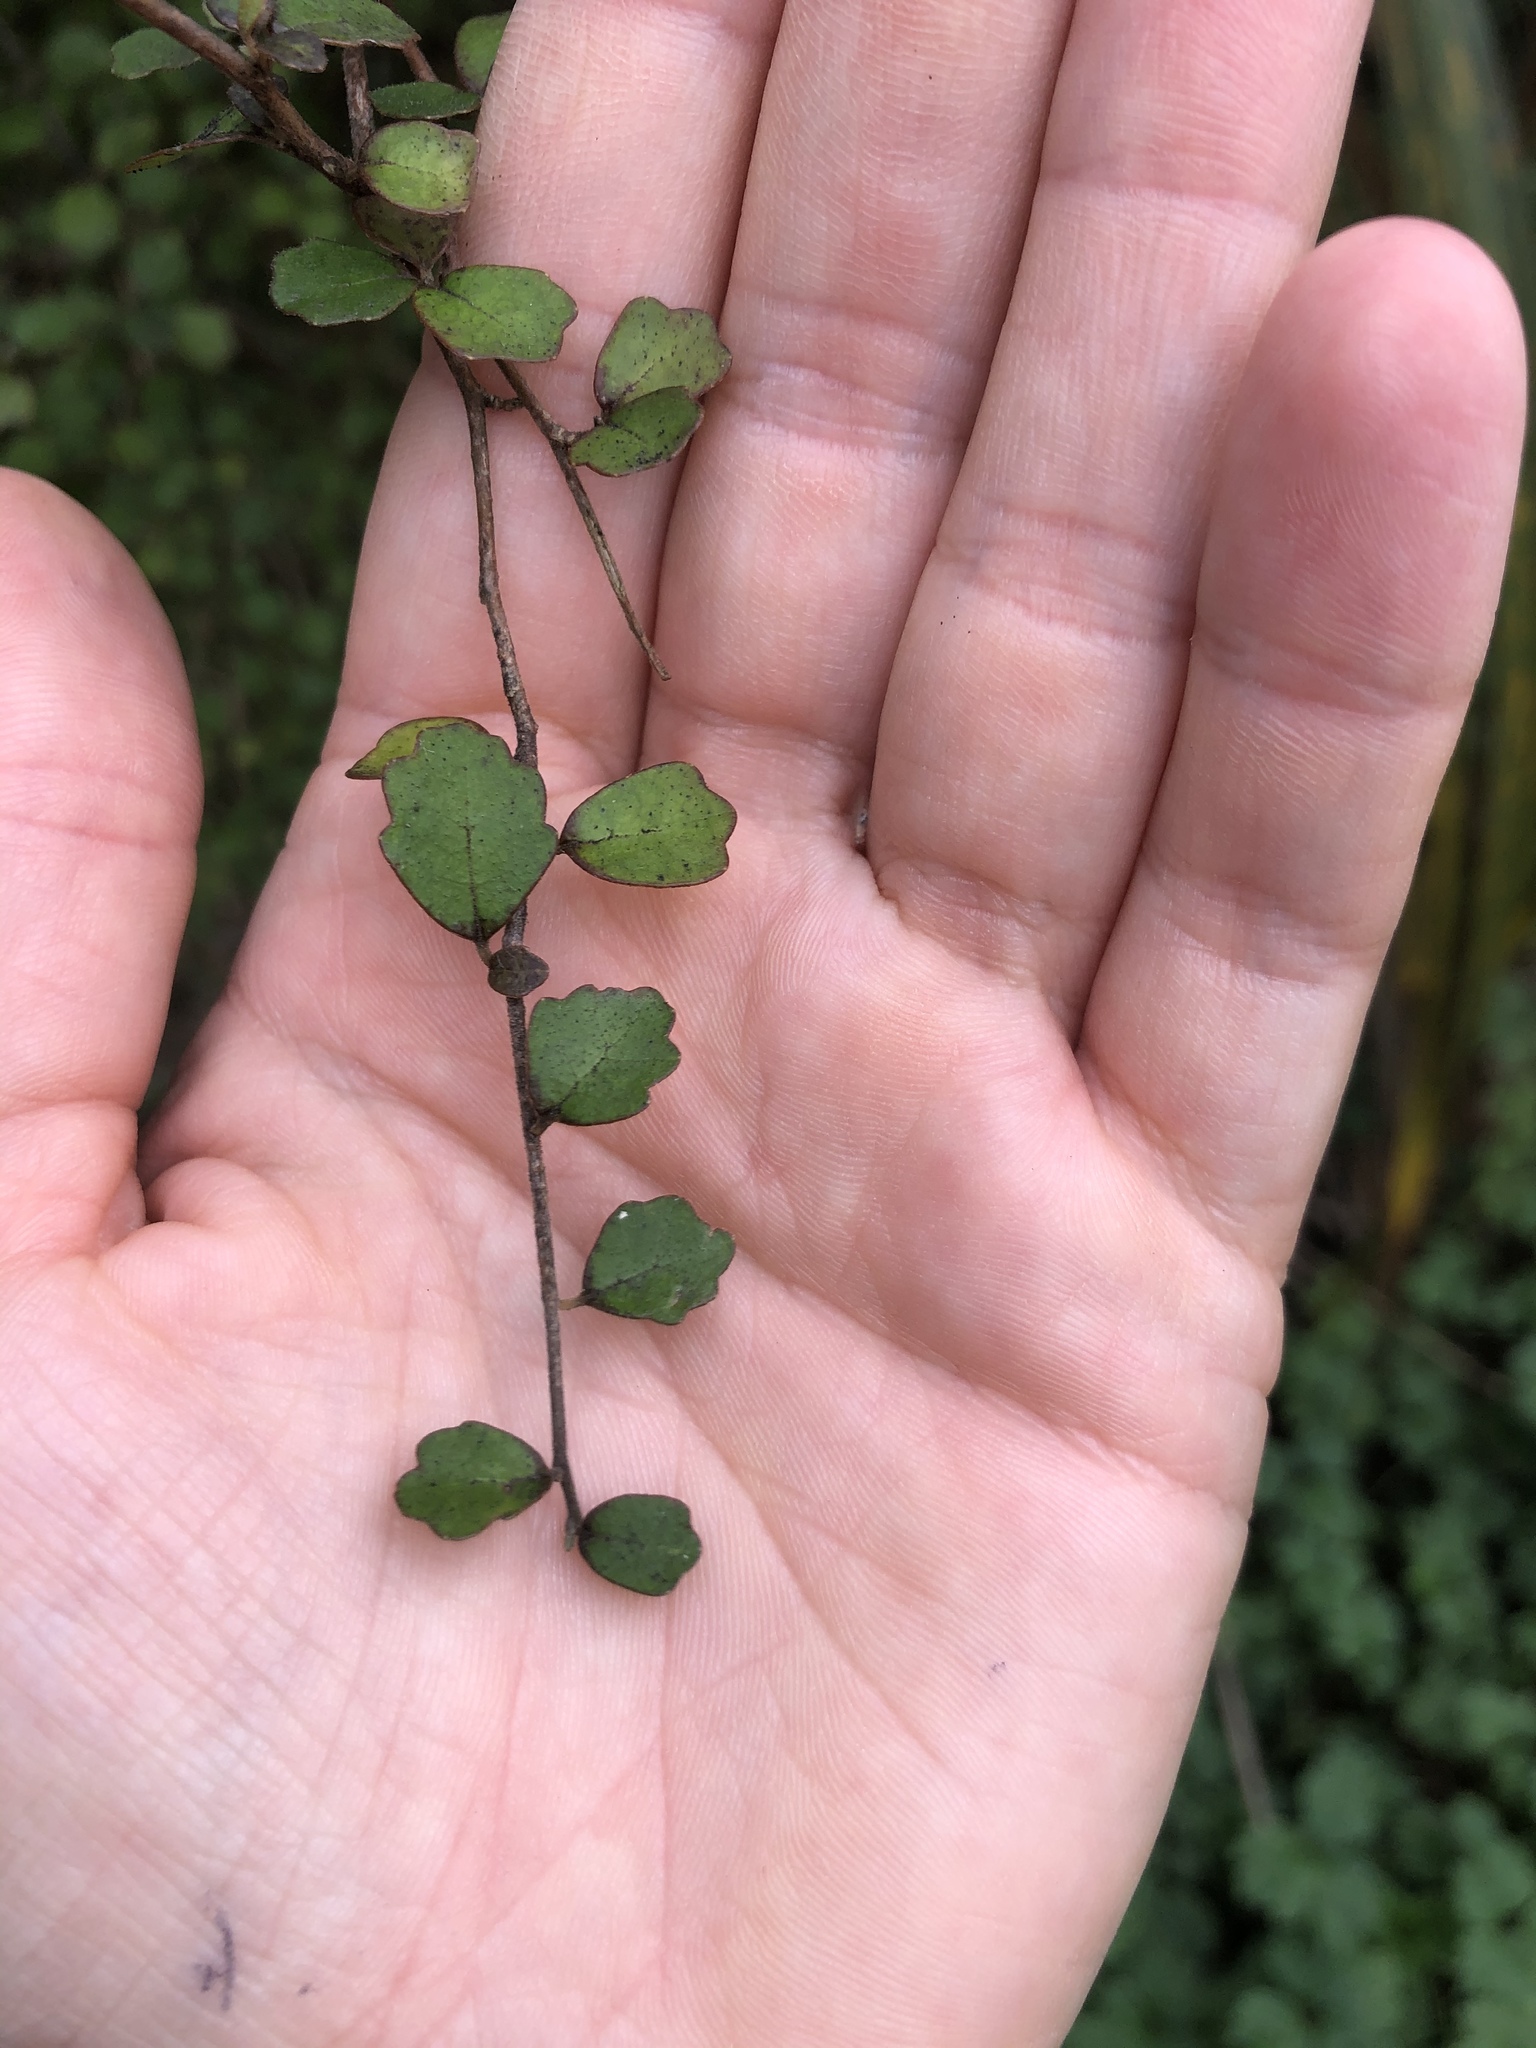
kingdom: Plantae
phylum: Tracheophyta
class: Magnoliopsida
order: Apiales
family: Pennantiaceae
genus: Pennantia
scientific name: Pennantia corymbosa
